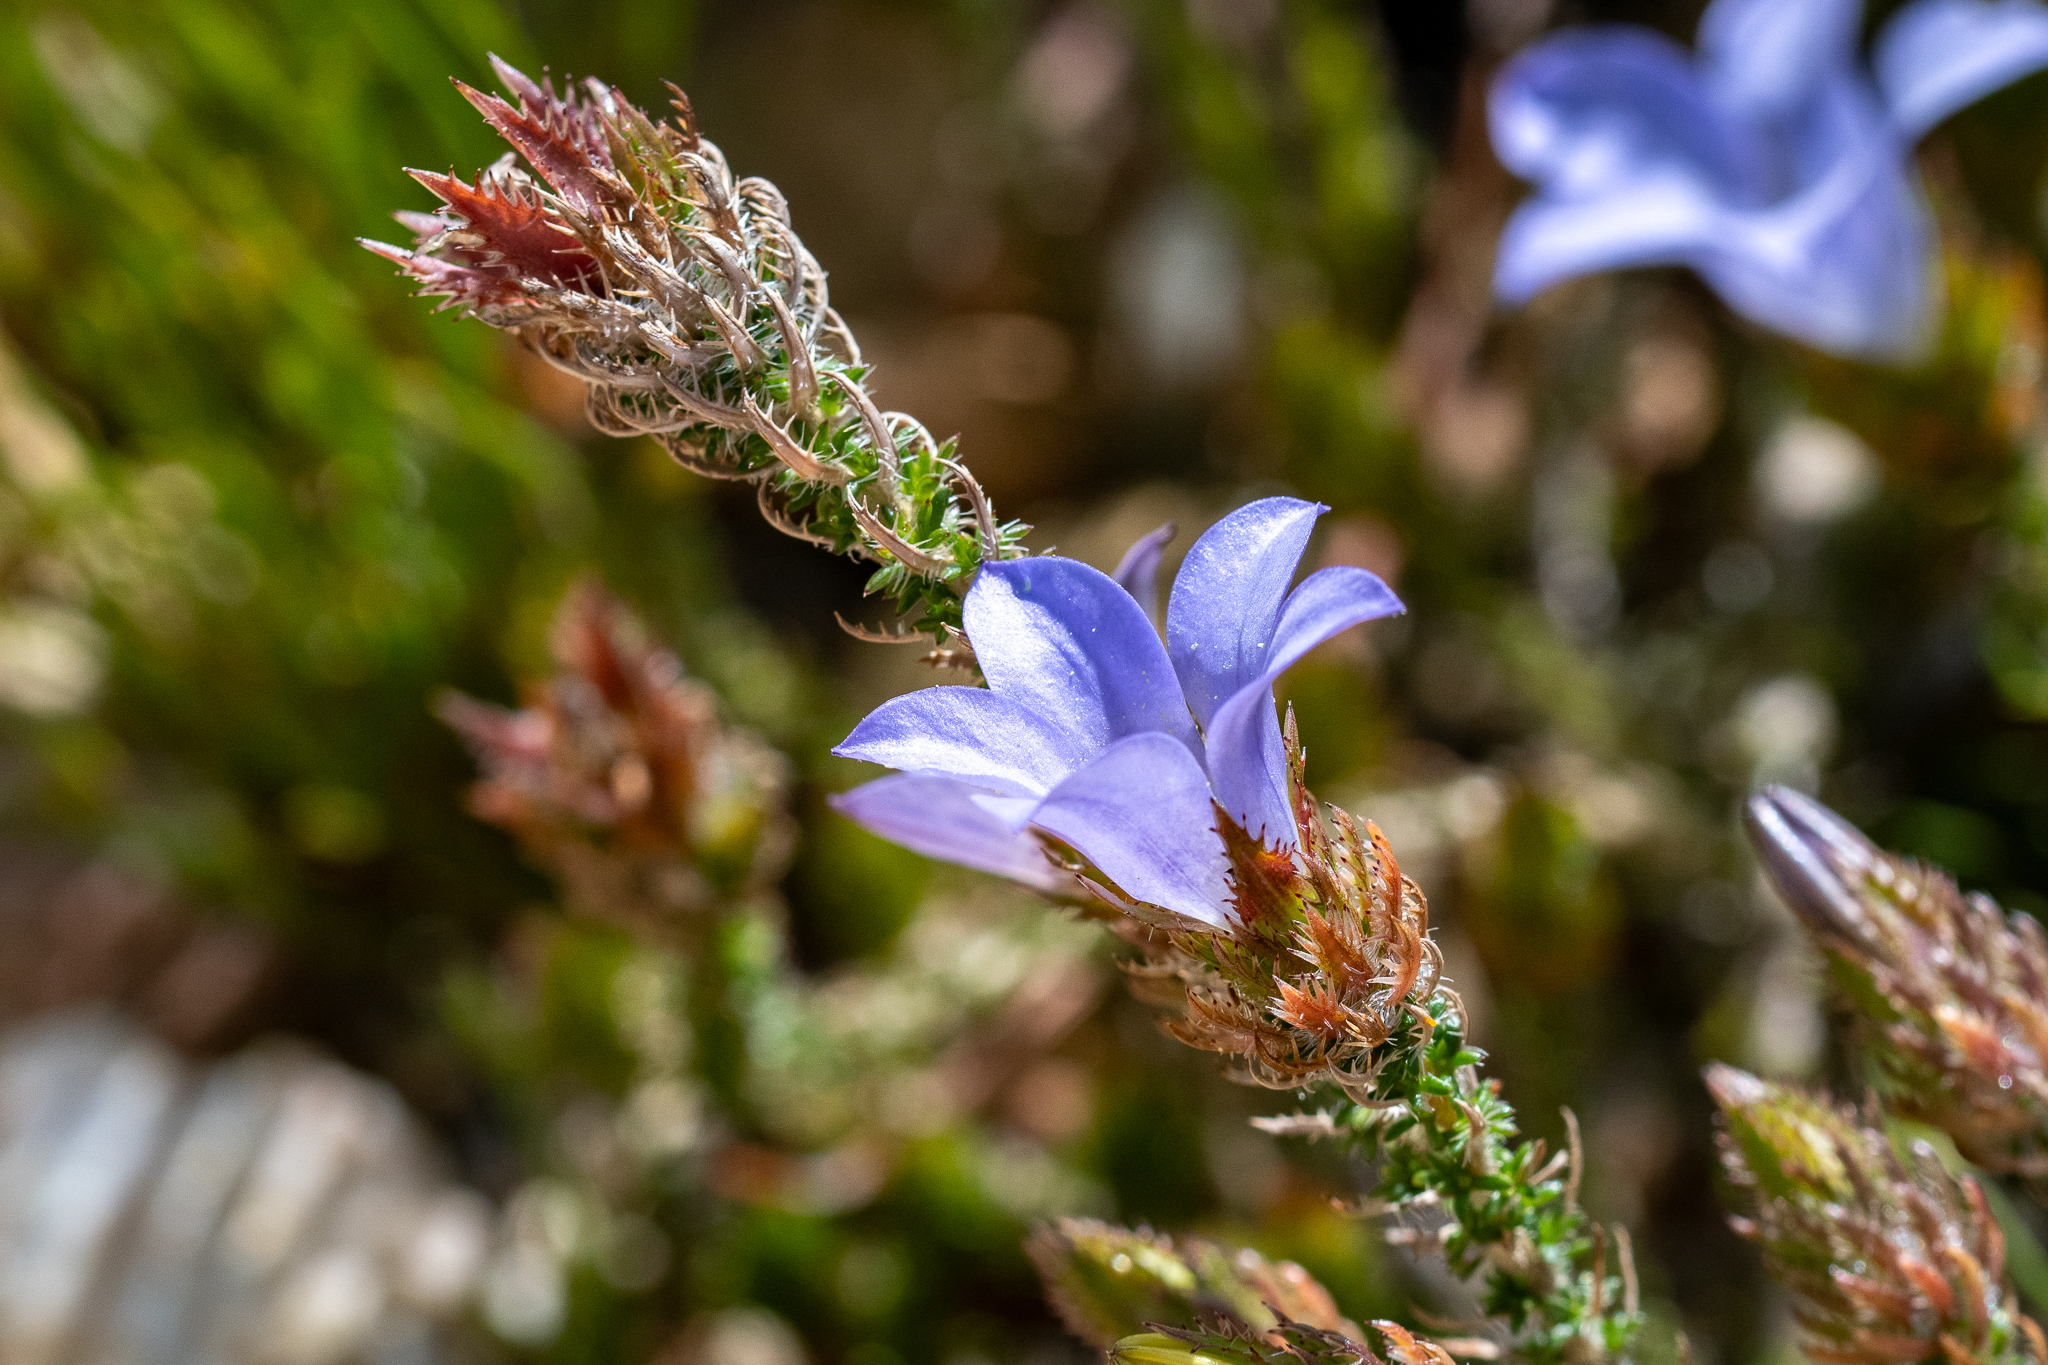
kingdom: Animalia
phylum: Arthropoda
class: Insecta
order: Lepidoptera
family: Lycaenidae
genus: Tarucus
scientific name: Tarucus thespis
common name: Vivid dotted blue
